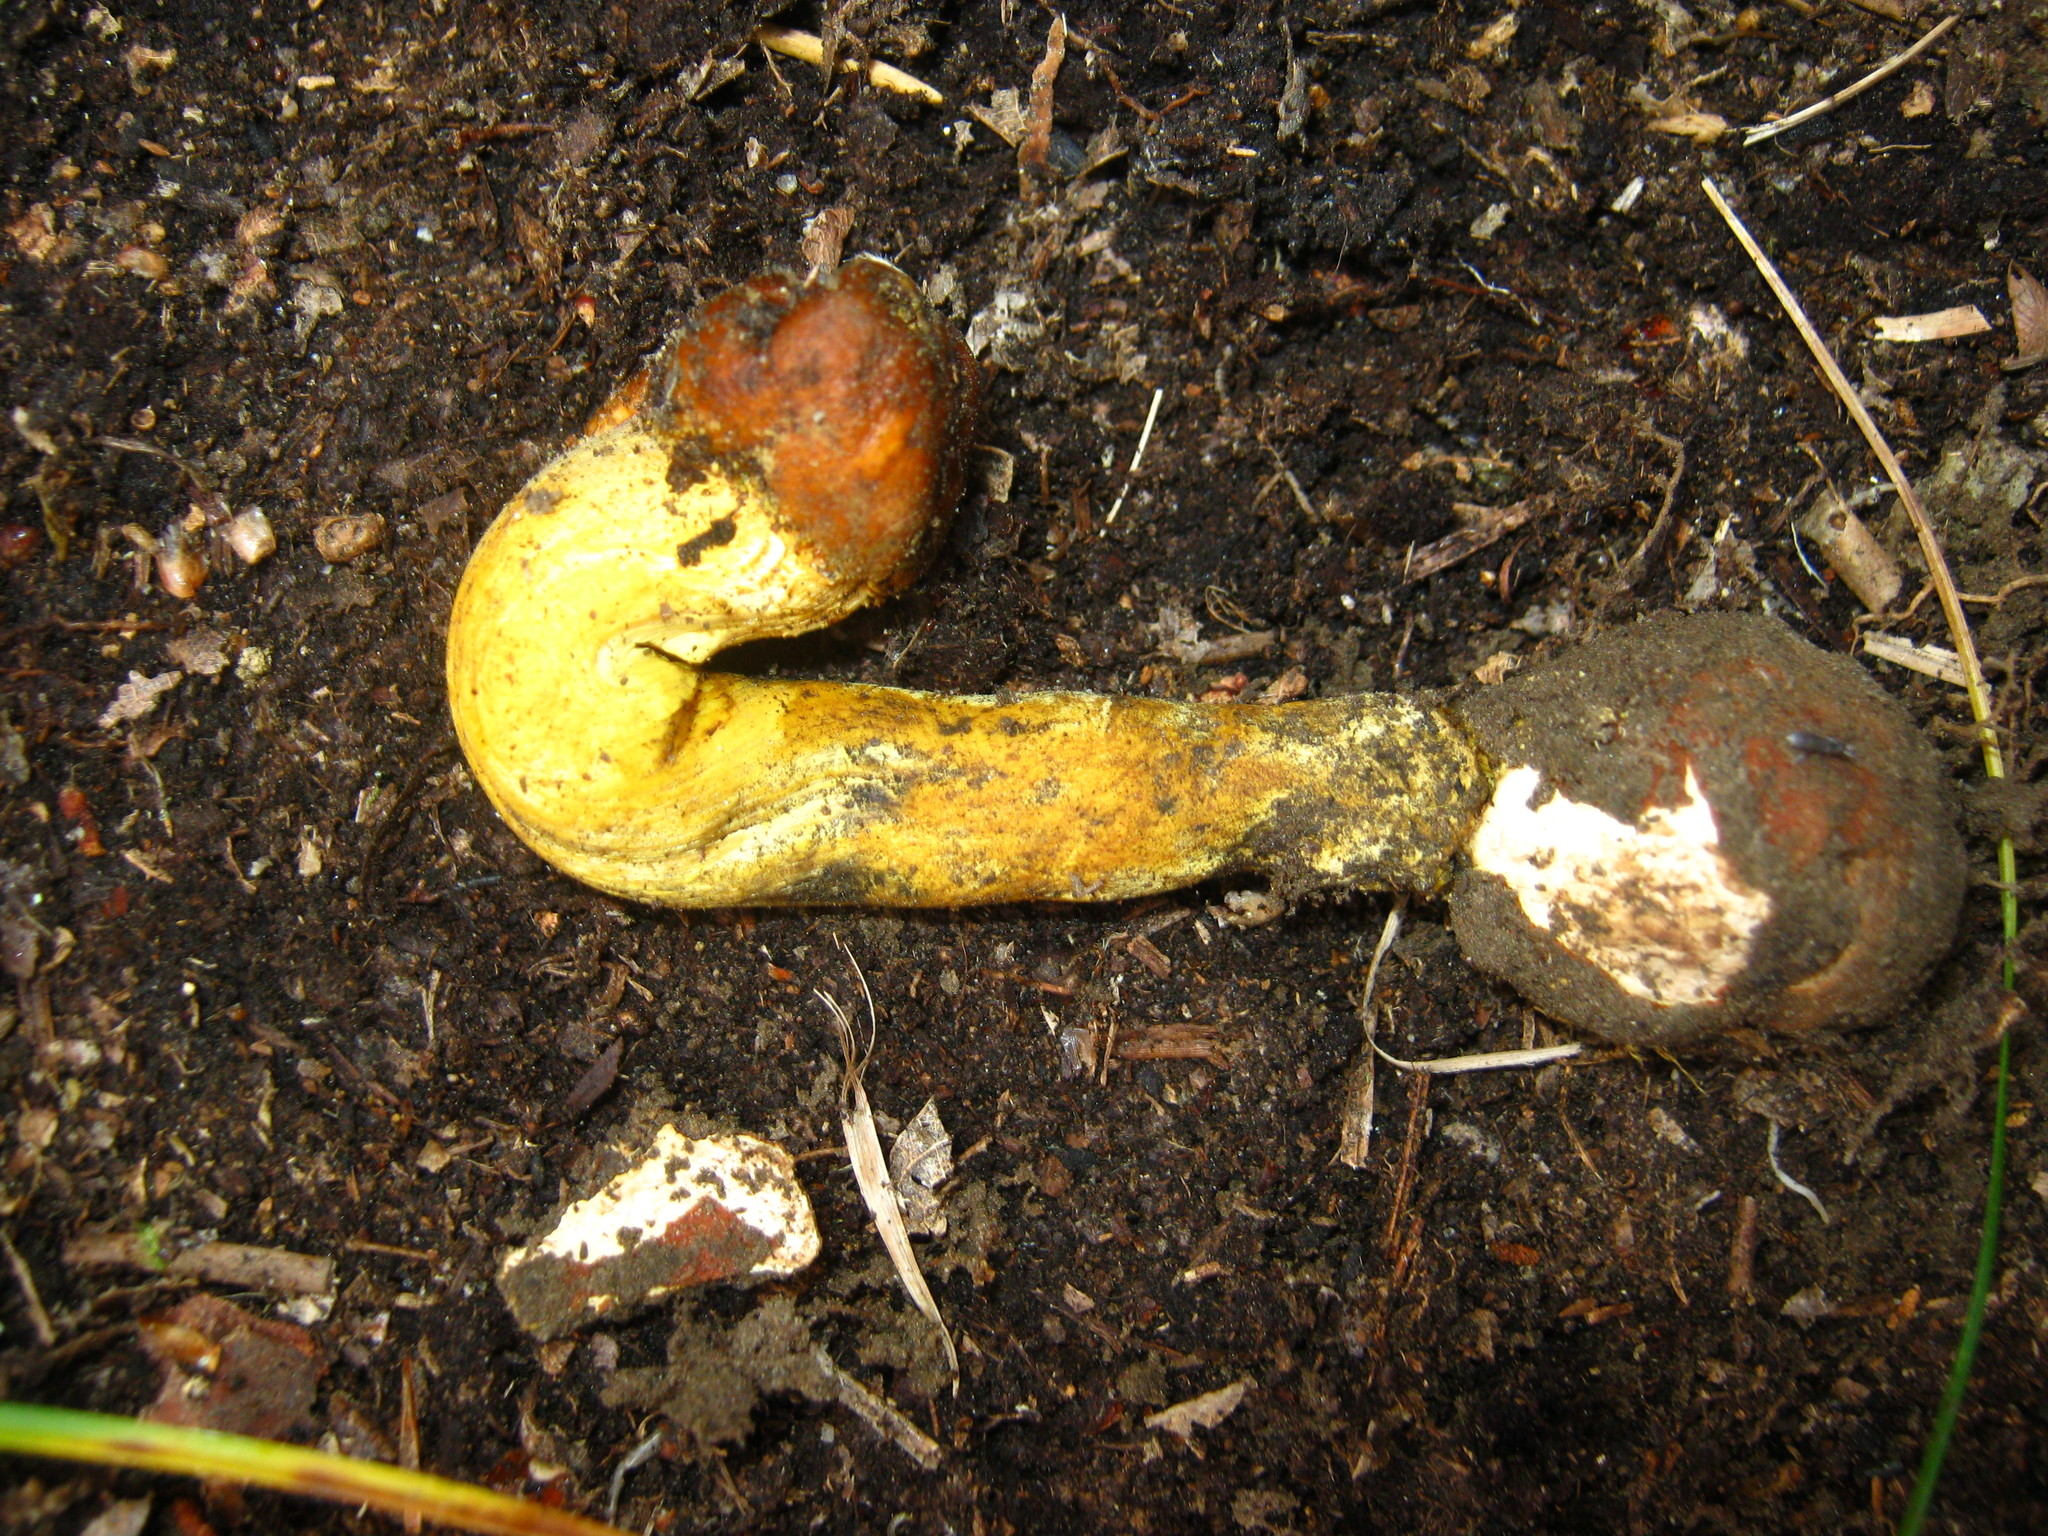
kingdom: Fungi
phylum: Ascomycota
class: Sordariomycetes
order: Hypocreales
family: Ophiocordycipitaceae
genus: Tolypocladium
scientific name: Tolypocladium capitatum
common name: Capitate truffleclub
